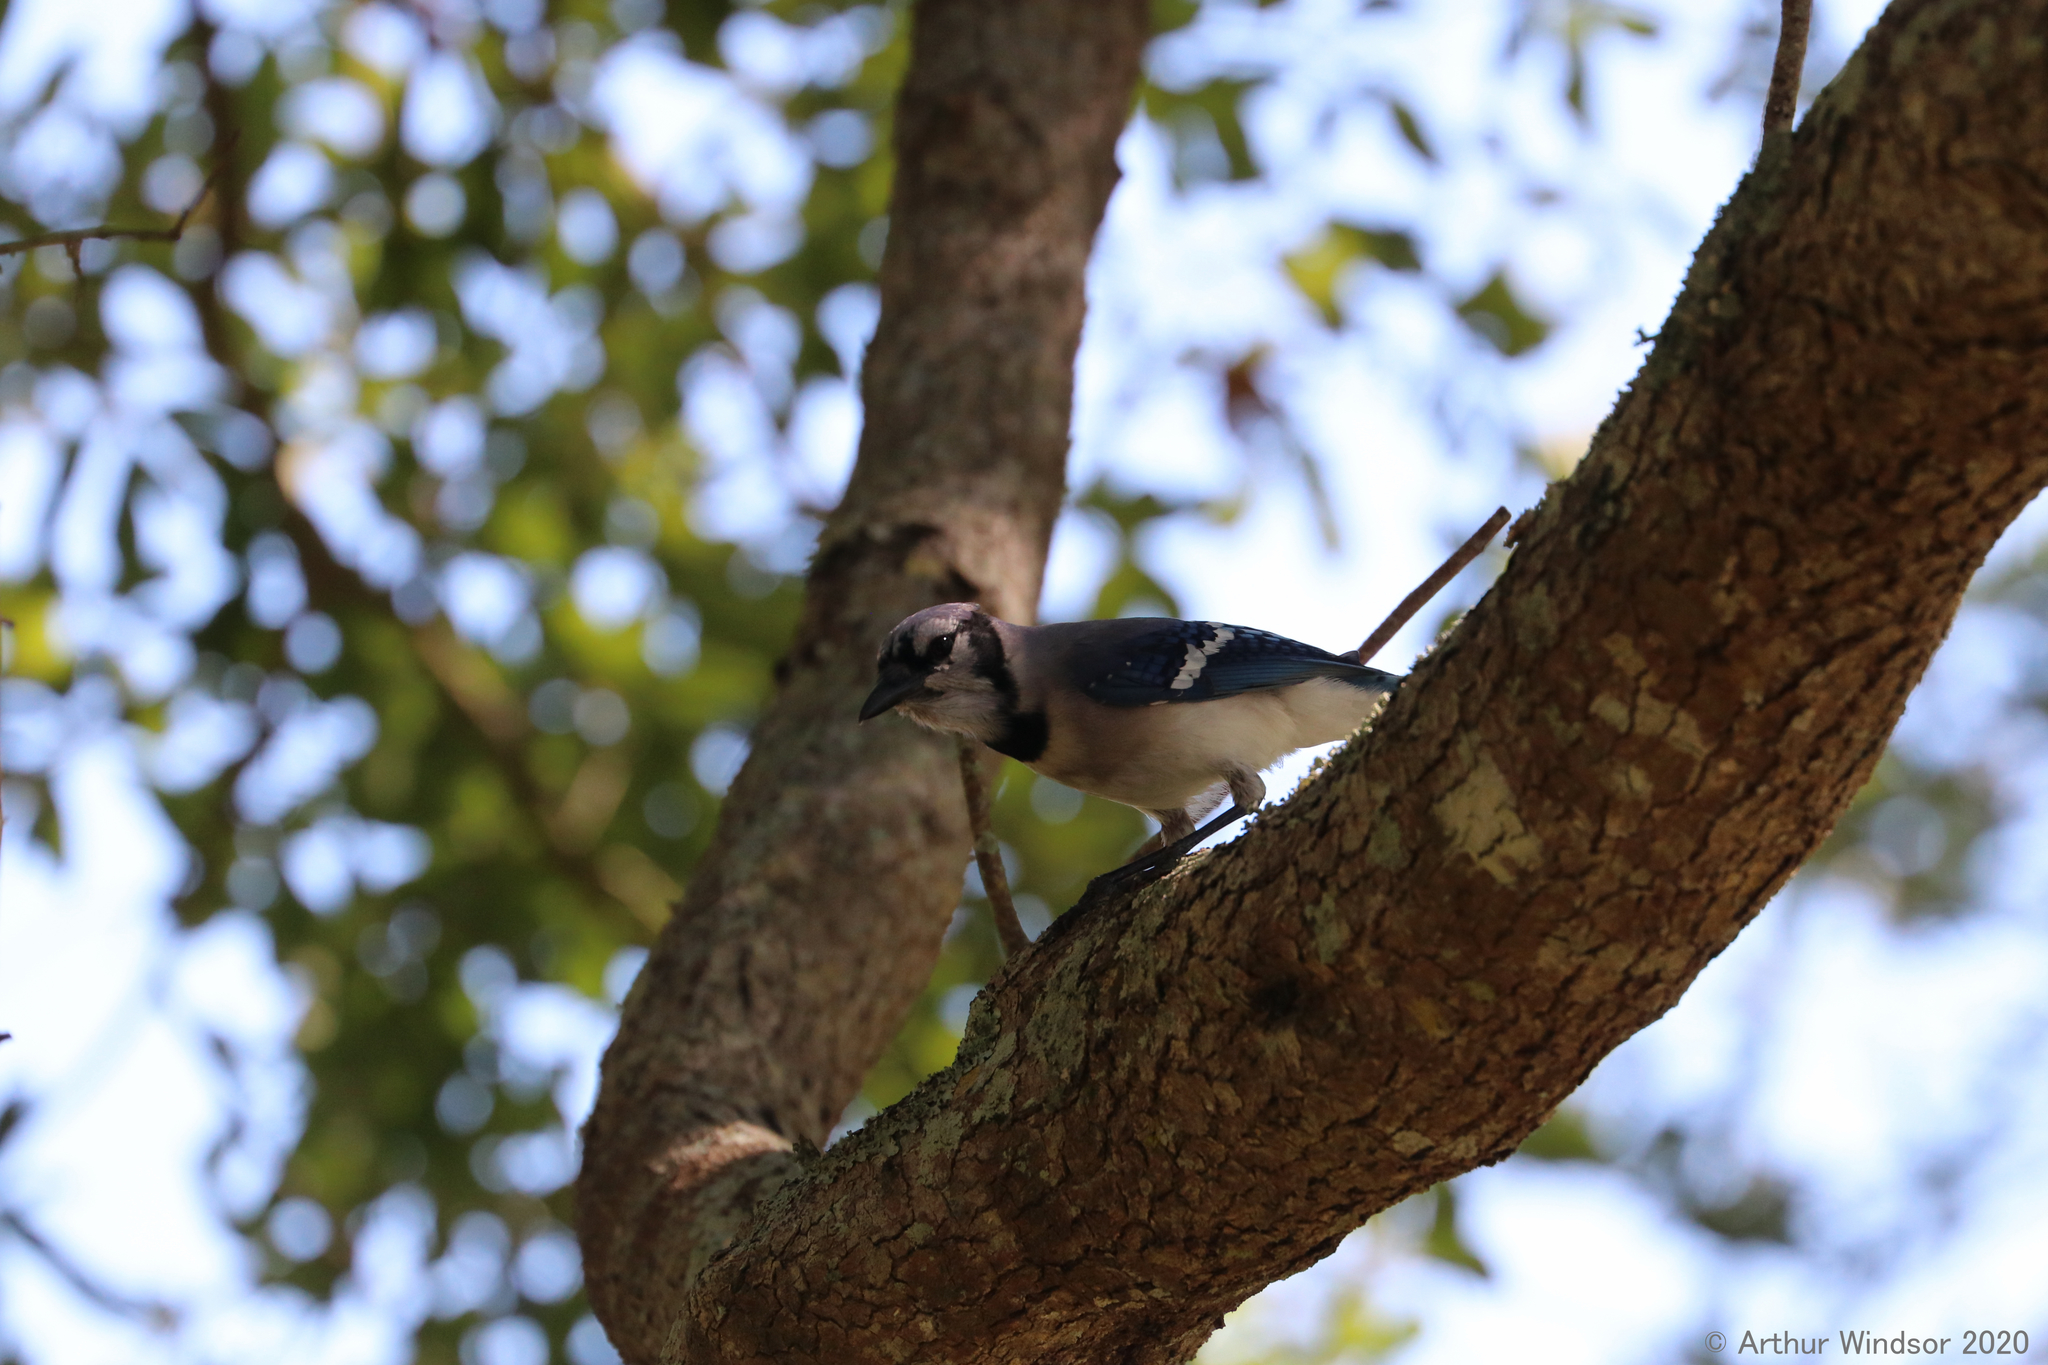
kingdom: Animalia
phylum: Chordata
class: Aves
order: Passeriformes
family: Corvidae
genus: Cyanocitta
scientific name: Cyanocitta cristata
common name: Blue jay
